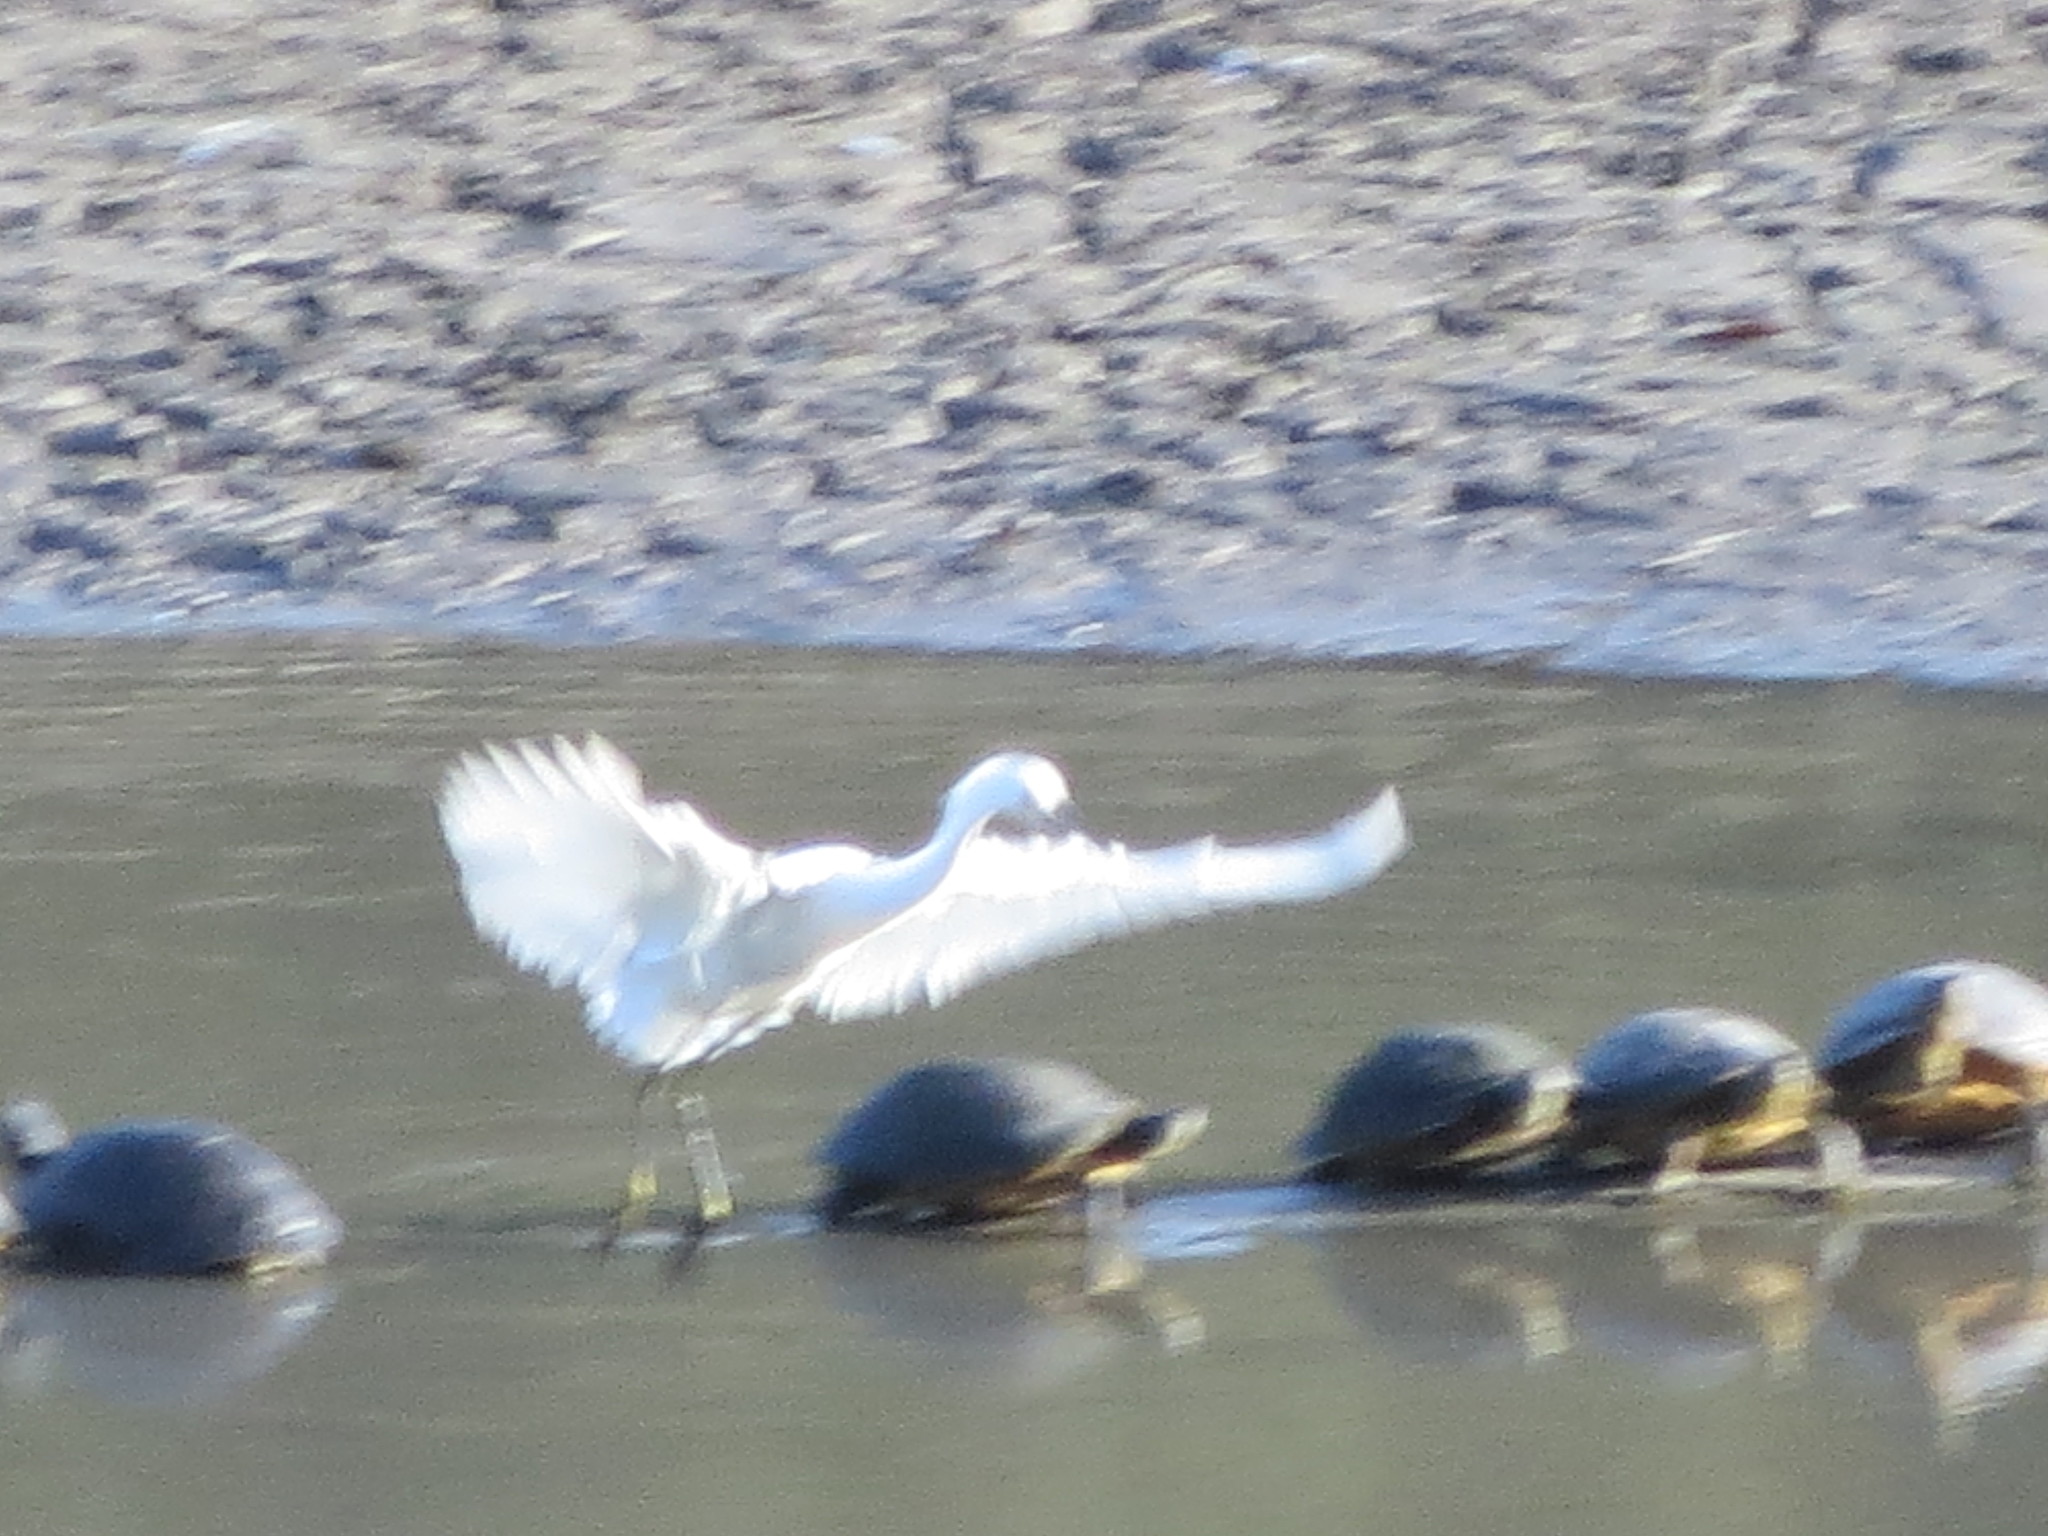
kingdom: Animalia
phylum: Chordata
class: Aves
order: Pelecaniformes
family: Ardeidae
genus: Egretta
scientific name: Egretta thula
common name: Snowy egret
